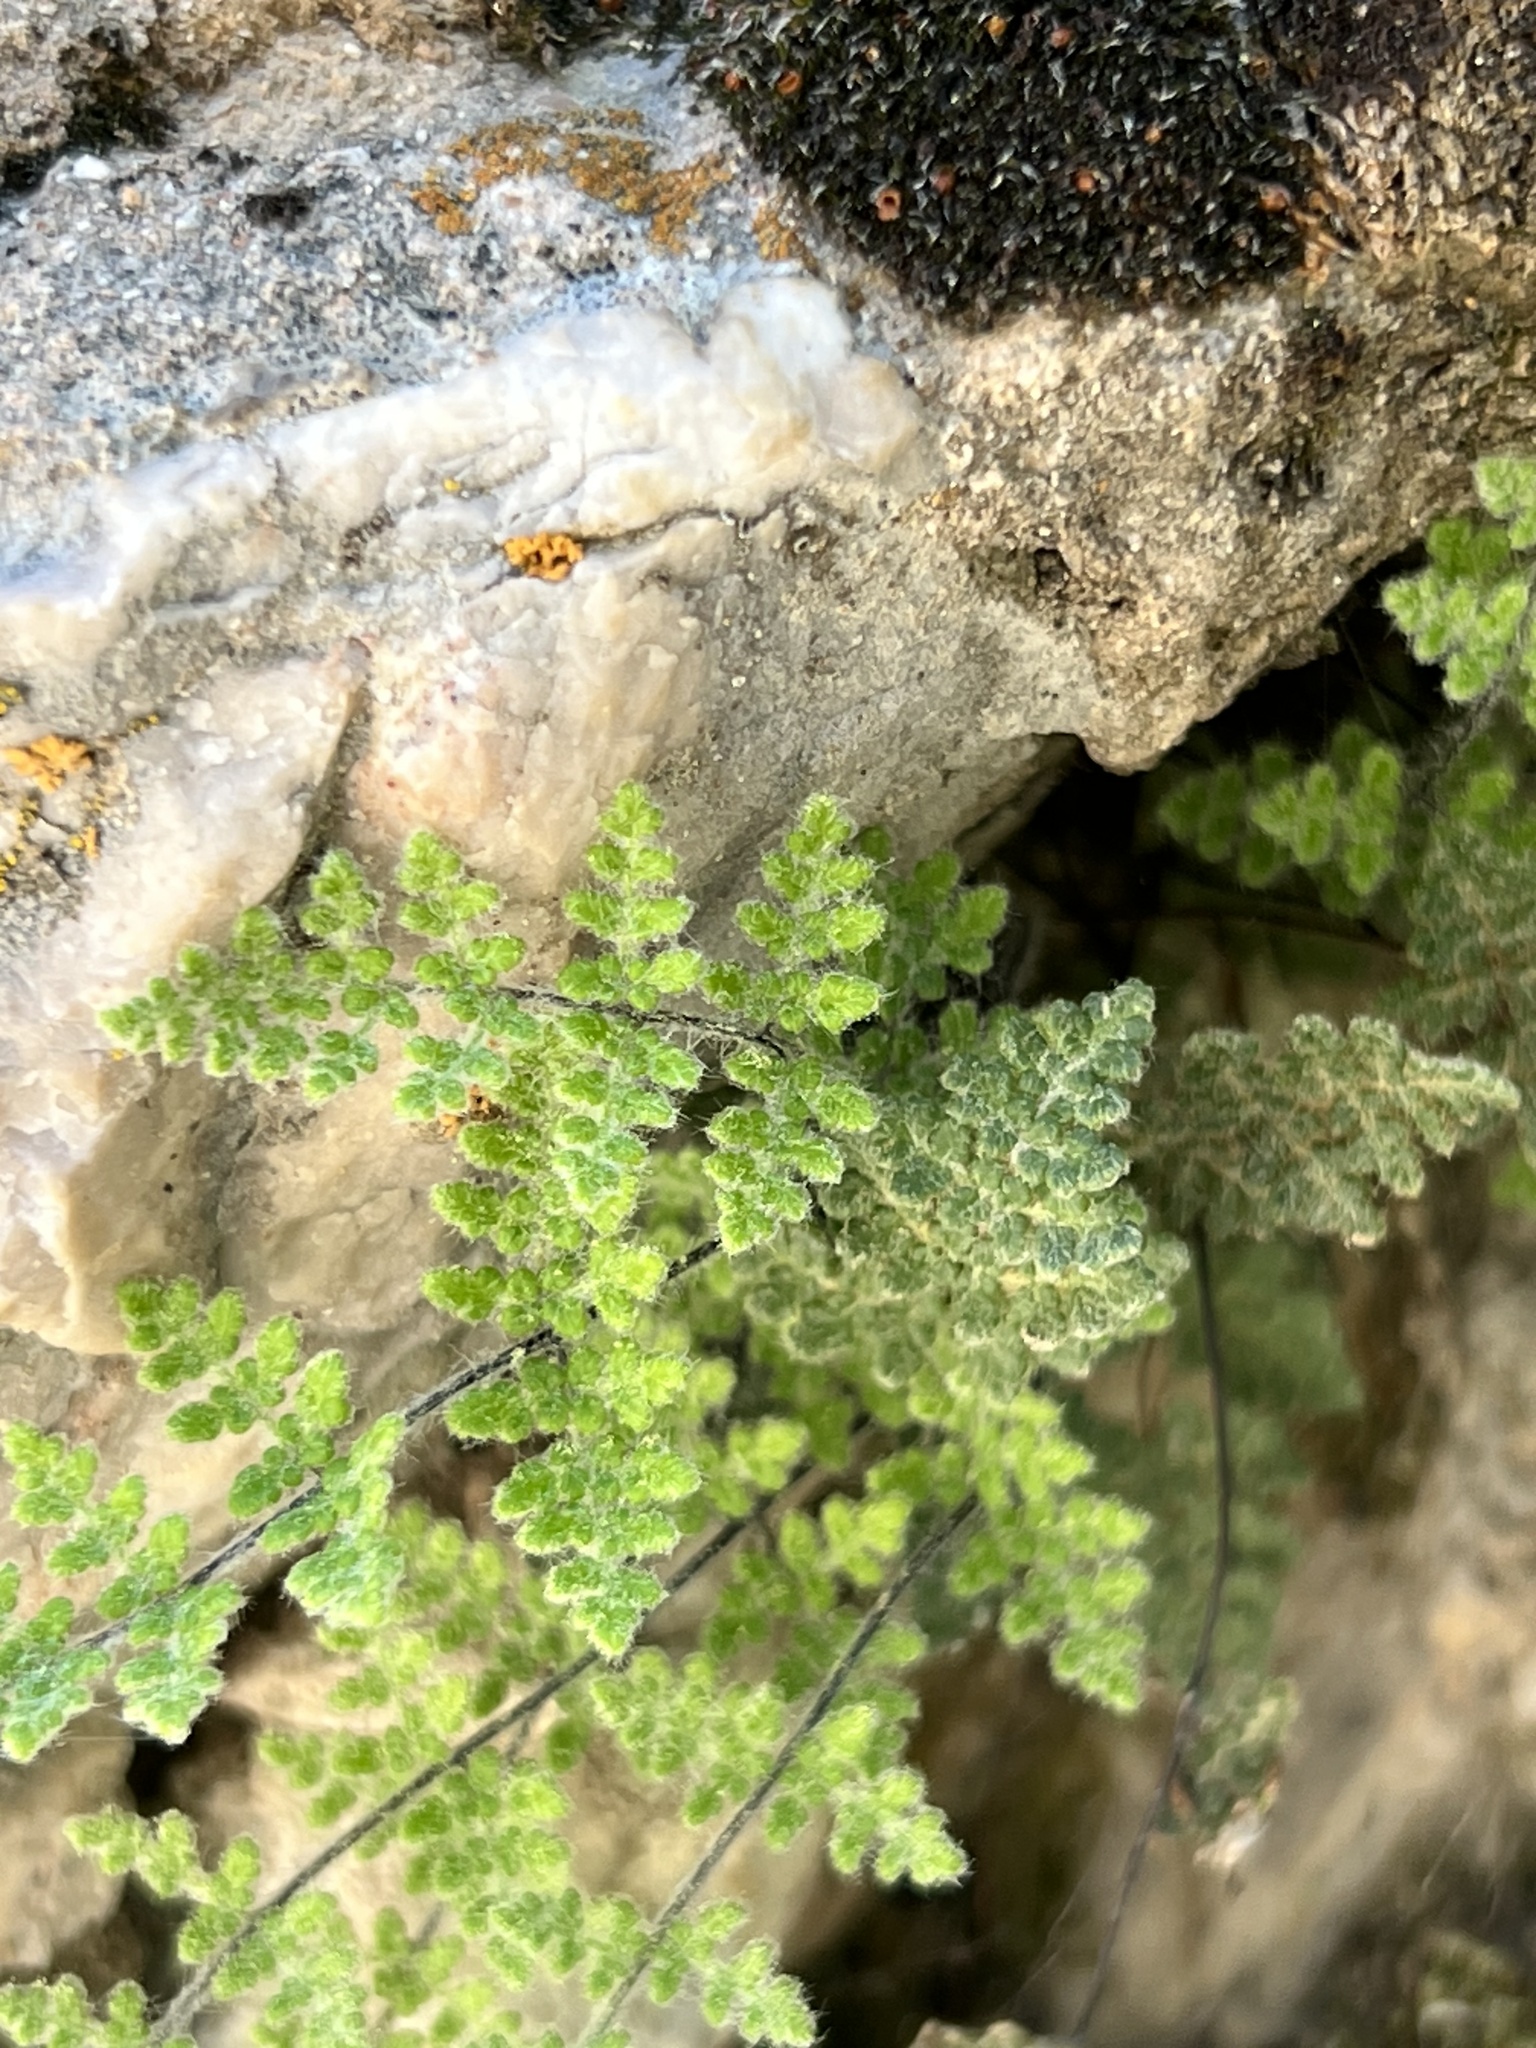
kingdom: Plantae
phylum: Tracheophyta
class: Polypodiopsida
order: Polypodiales
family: Pteridaceae
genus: Myriopteris
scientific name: Myriopteris gracilis
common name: Fee's lip fern
